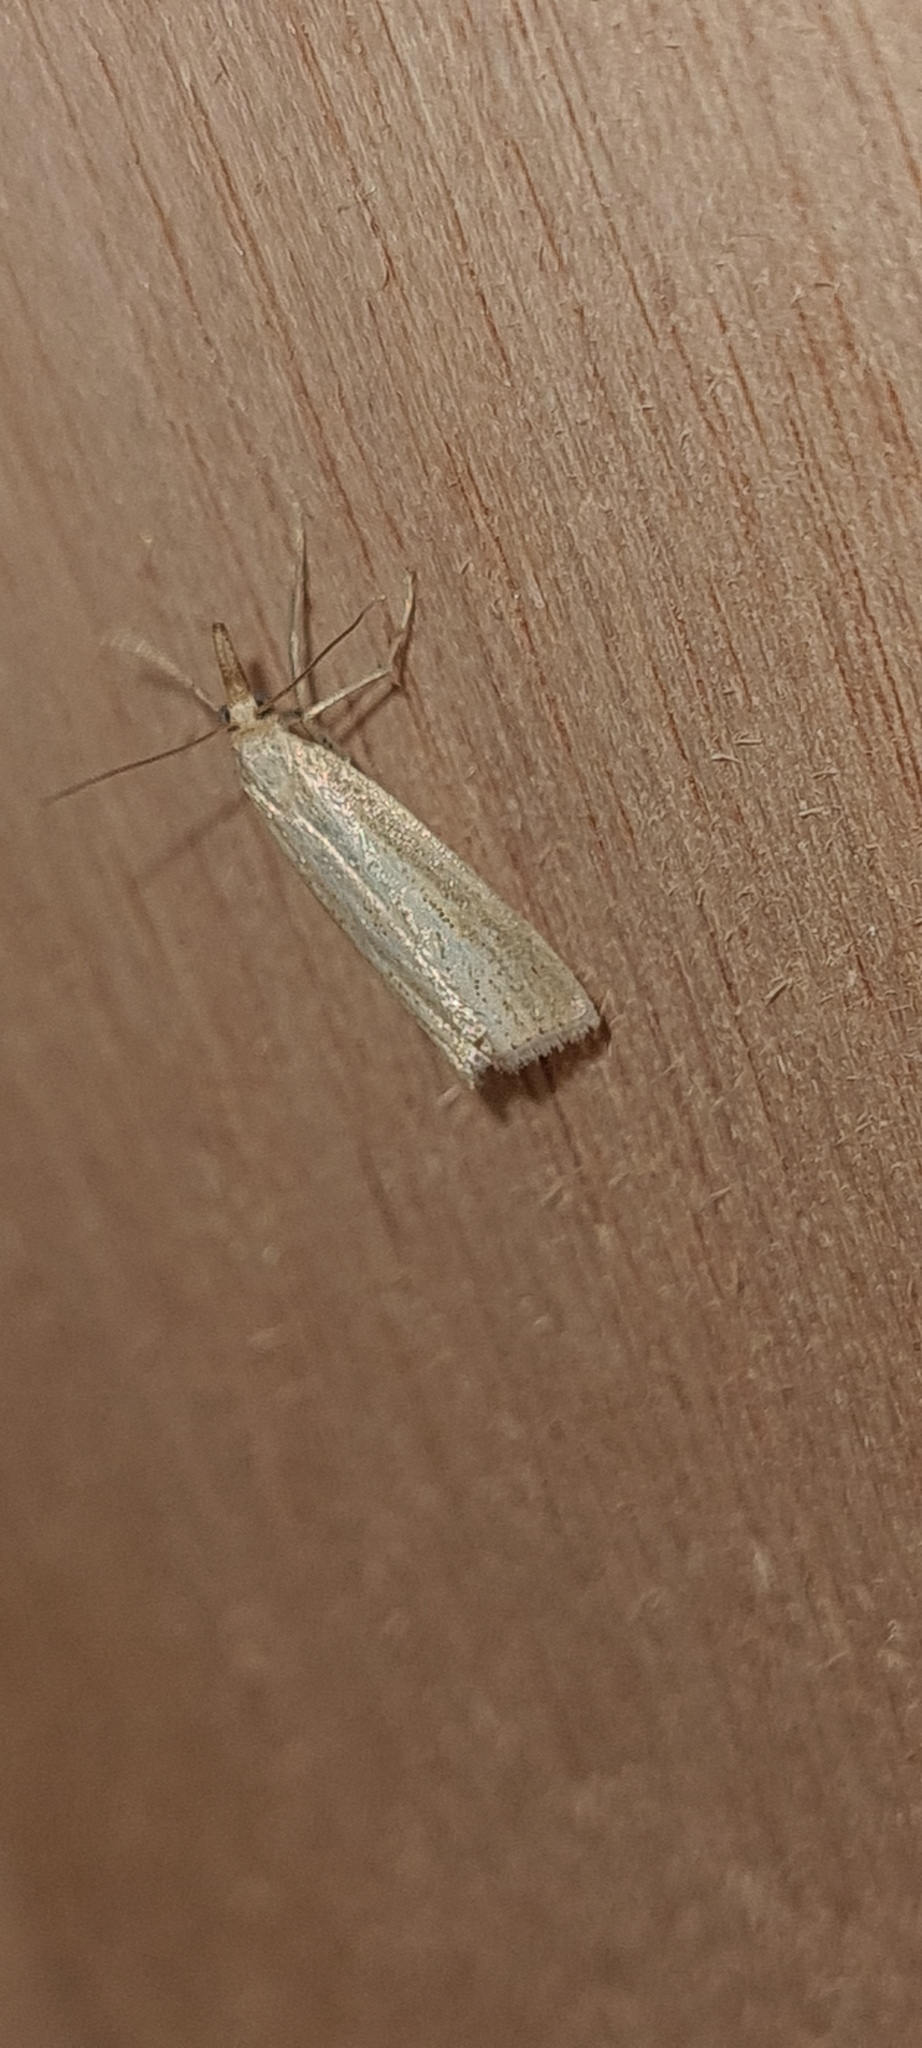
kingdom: Animalia
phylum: Arthropoda
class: Insecta
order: Lepidoptera
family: Crambidae
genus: Agriphila
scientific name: Agriphila straminella
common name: Straw grass-veneer
